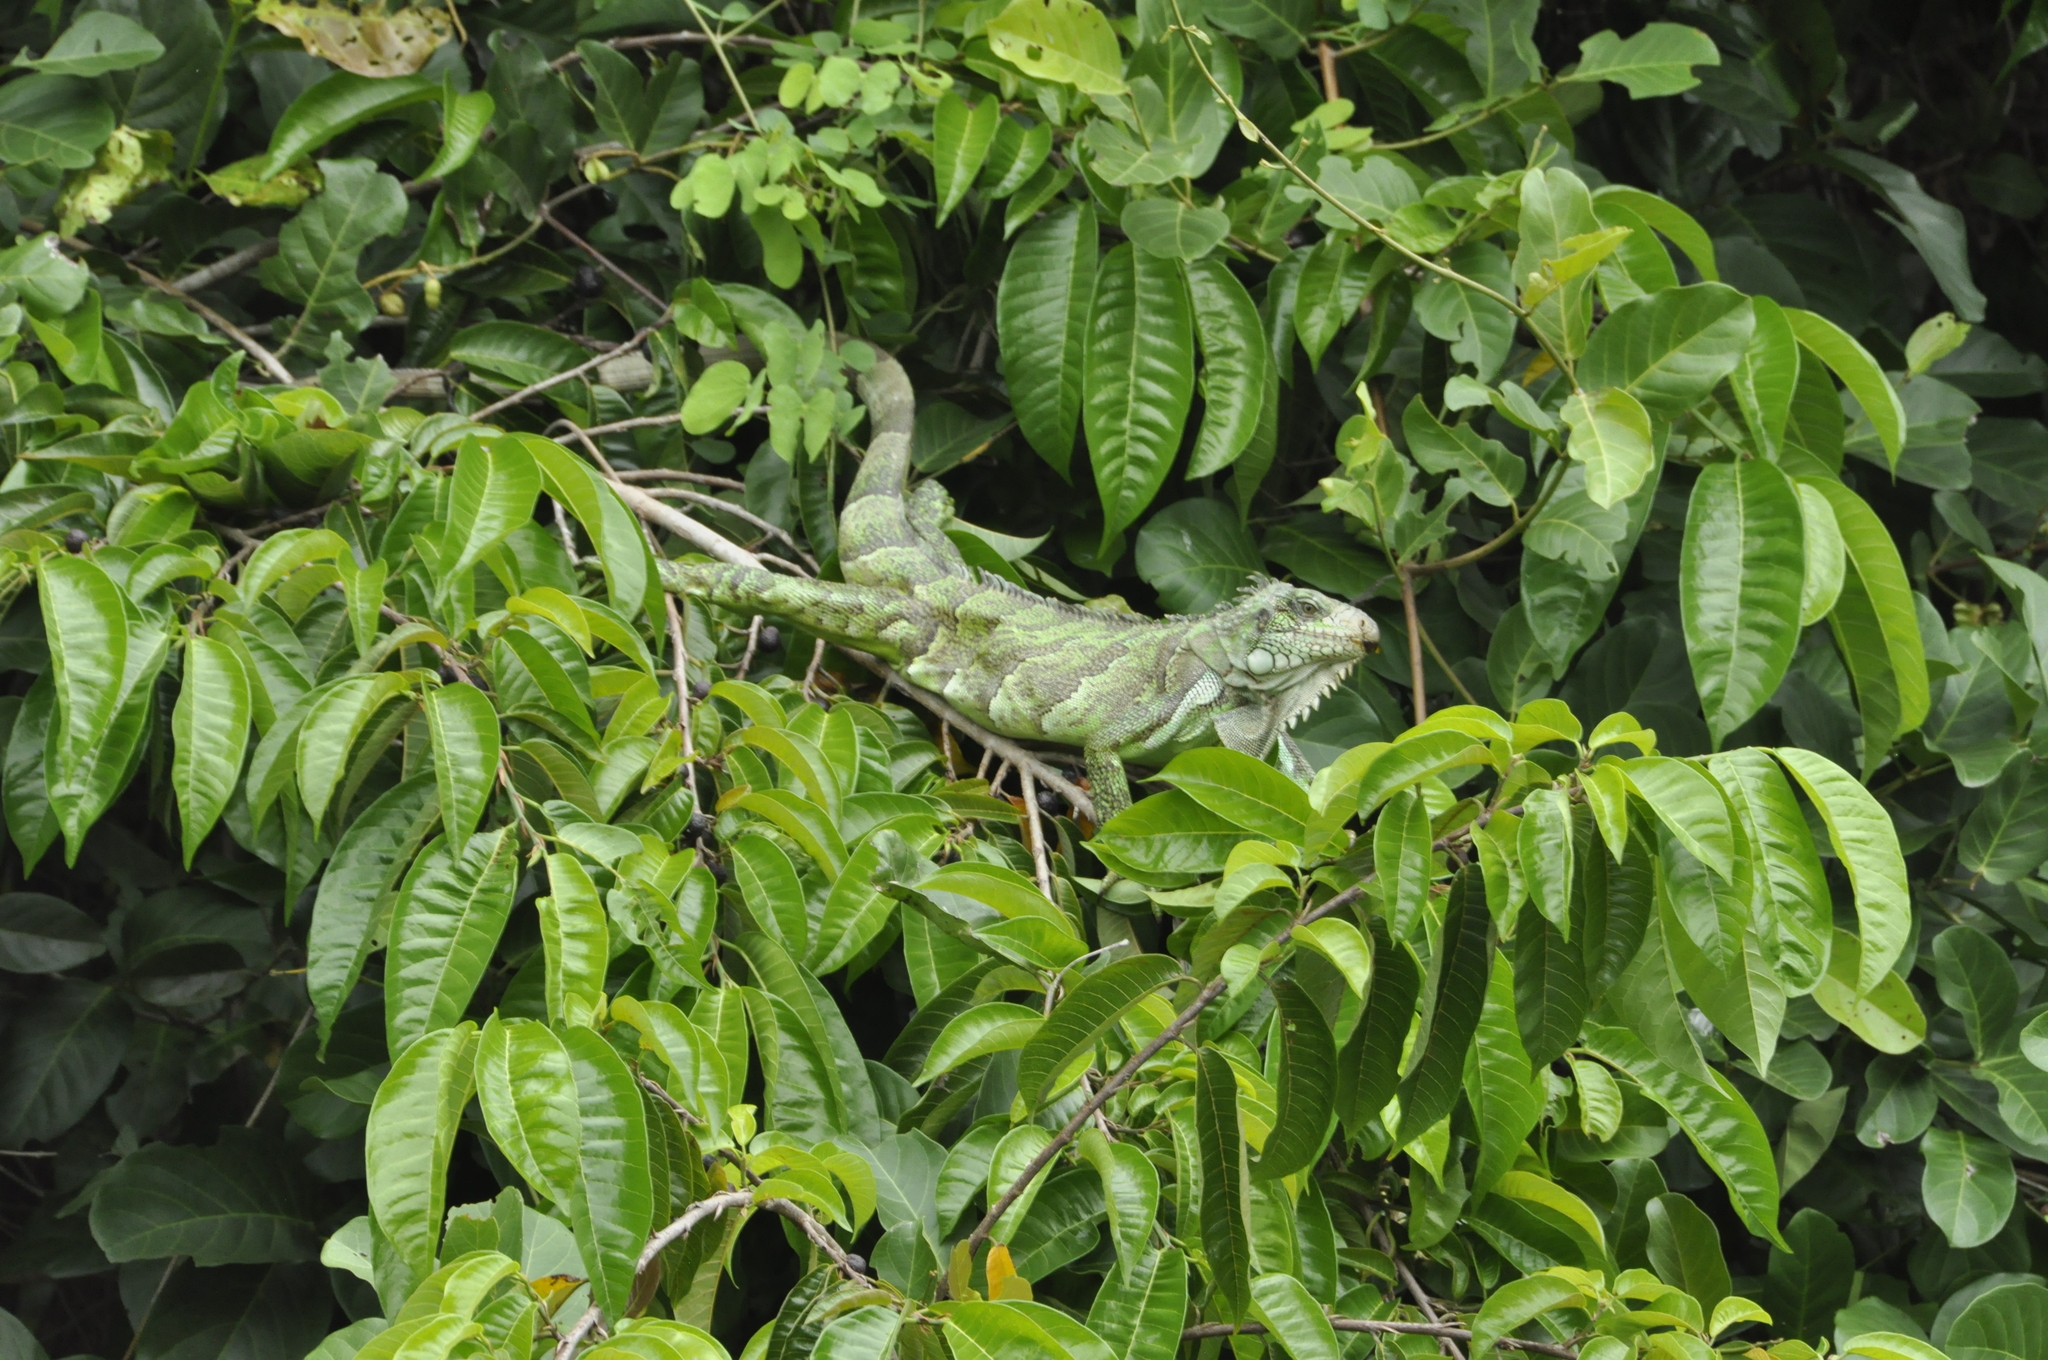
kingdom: Animalia
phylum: Chordata
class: Squamata
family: Iguanidae
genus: Iguana
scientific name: Iguana iguana
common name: Green iguana
